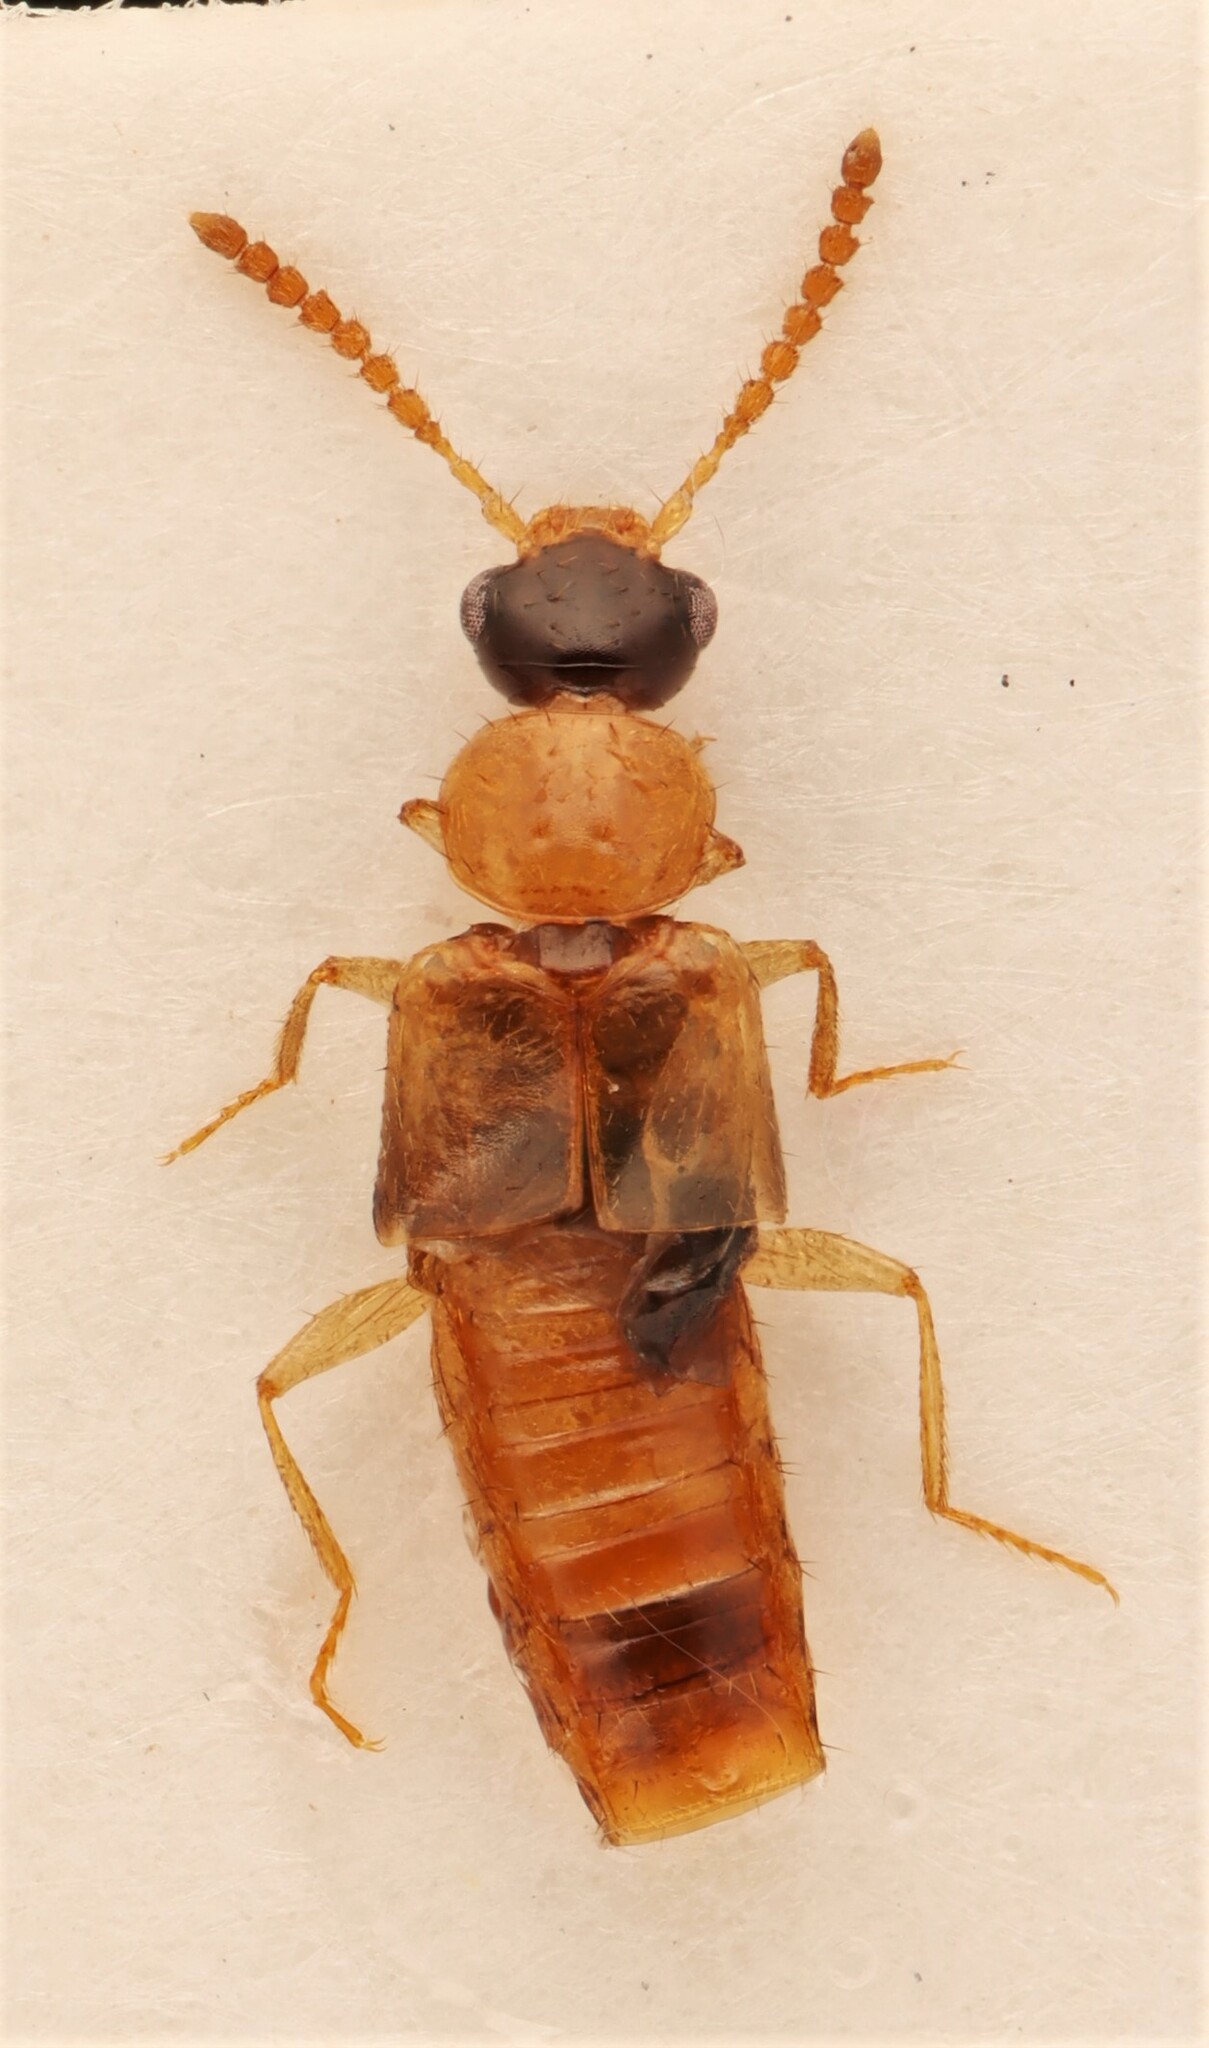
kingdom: Animalia
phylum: Arthropoda
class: Insecta
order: Coleoptera
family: Staphylinidae
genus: Gyrophaena
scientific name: Gyrophaena gilvicollis
